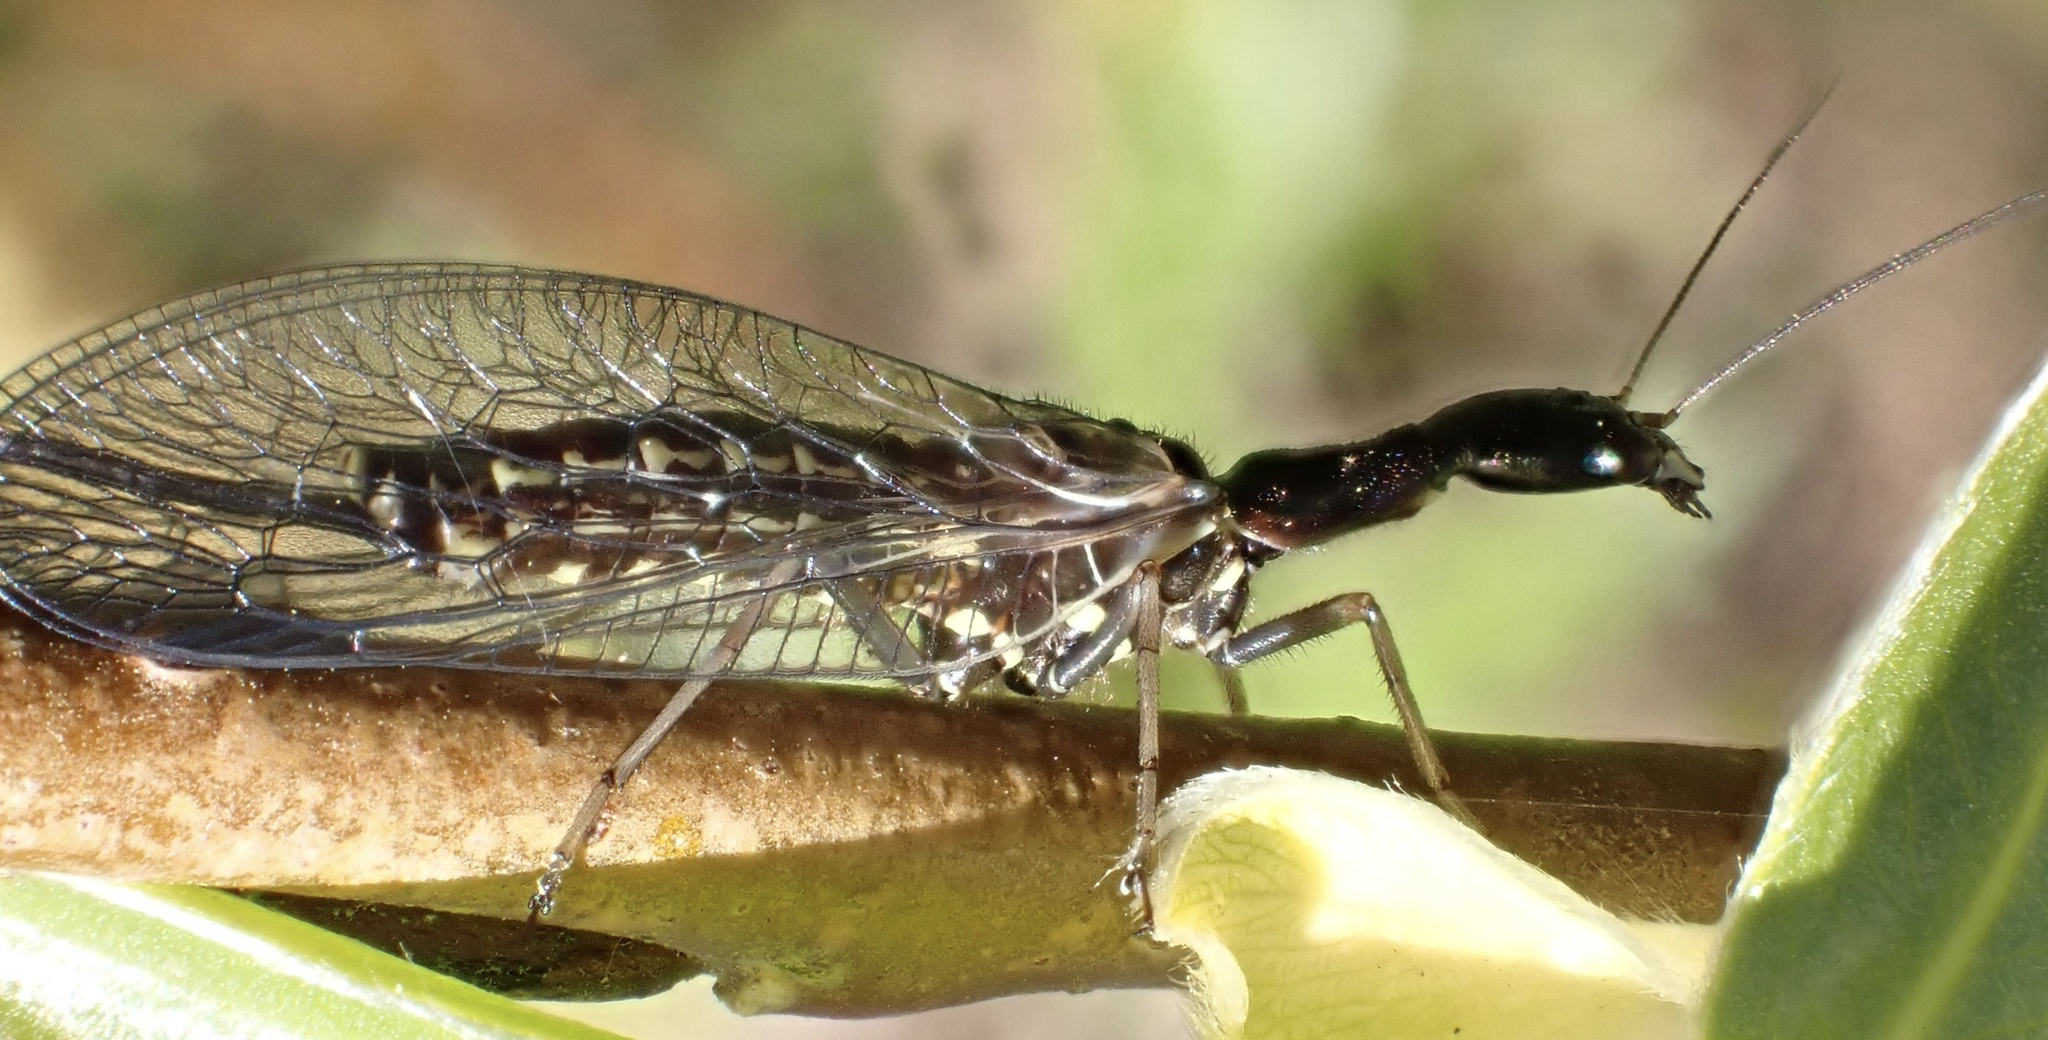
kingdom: Animalia
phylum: Arthropoda
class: Insecta
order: Raphidioptera
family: Raphidiidae
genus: Phaeostigma
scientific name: Phaeostigma notatum
